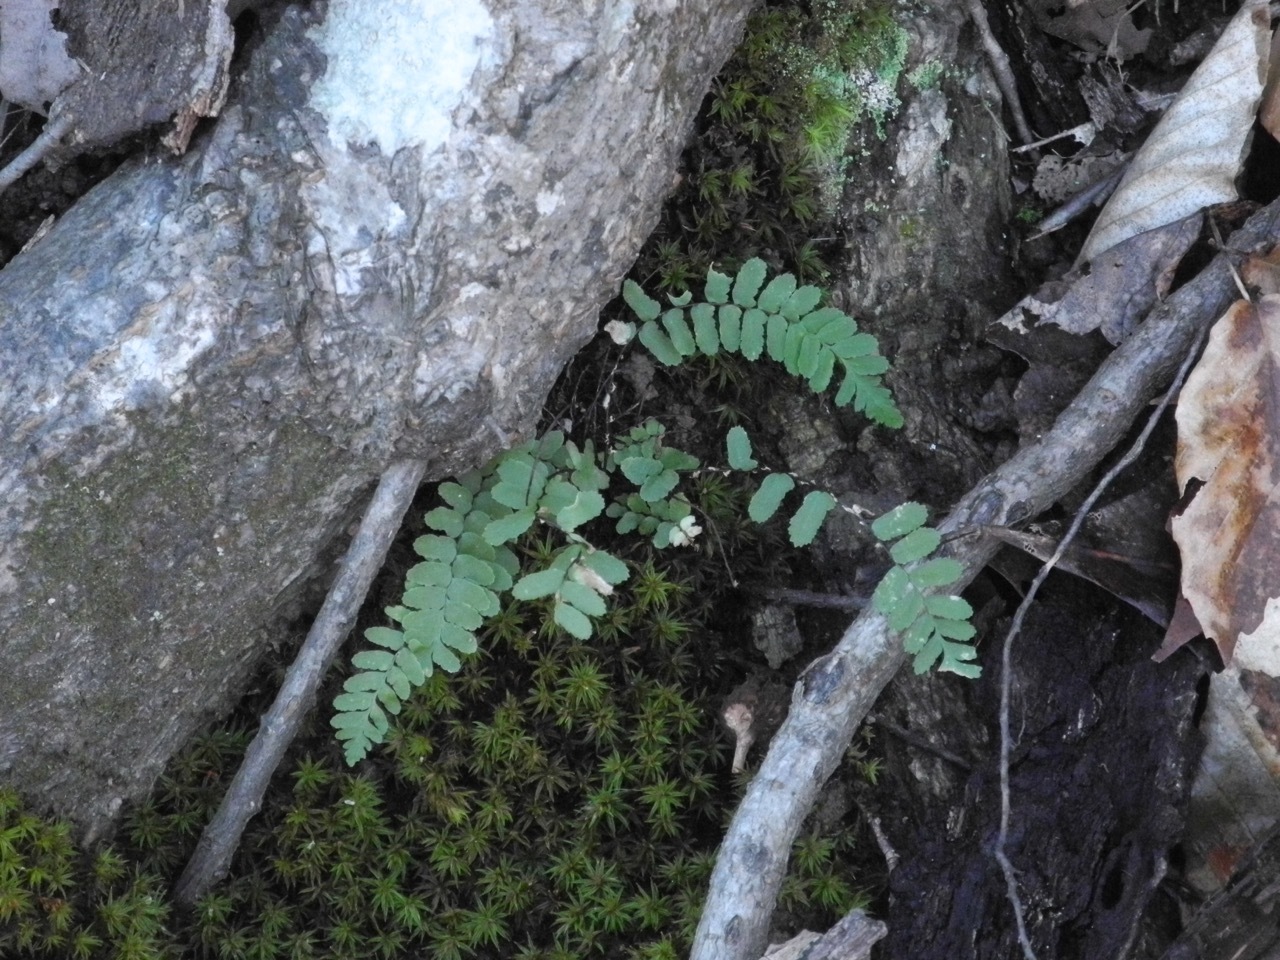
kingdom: Plantae
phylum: Tracheophyta
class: Polypodiopsida
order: Polypodiales
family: Aspleniaceae
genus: Asplenium
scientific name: Asplenium platyneuron
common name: Ebony spleenwort
